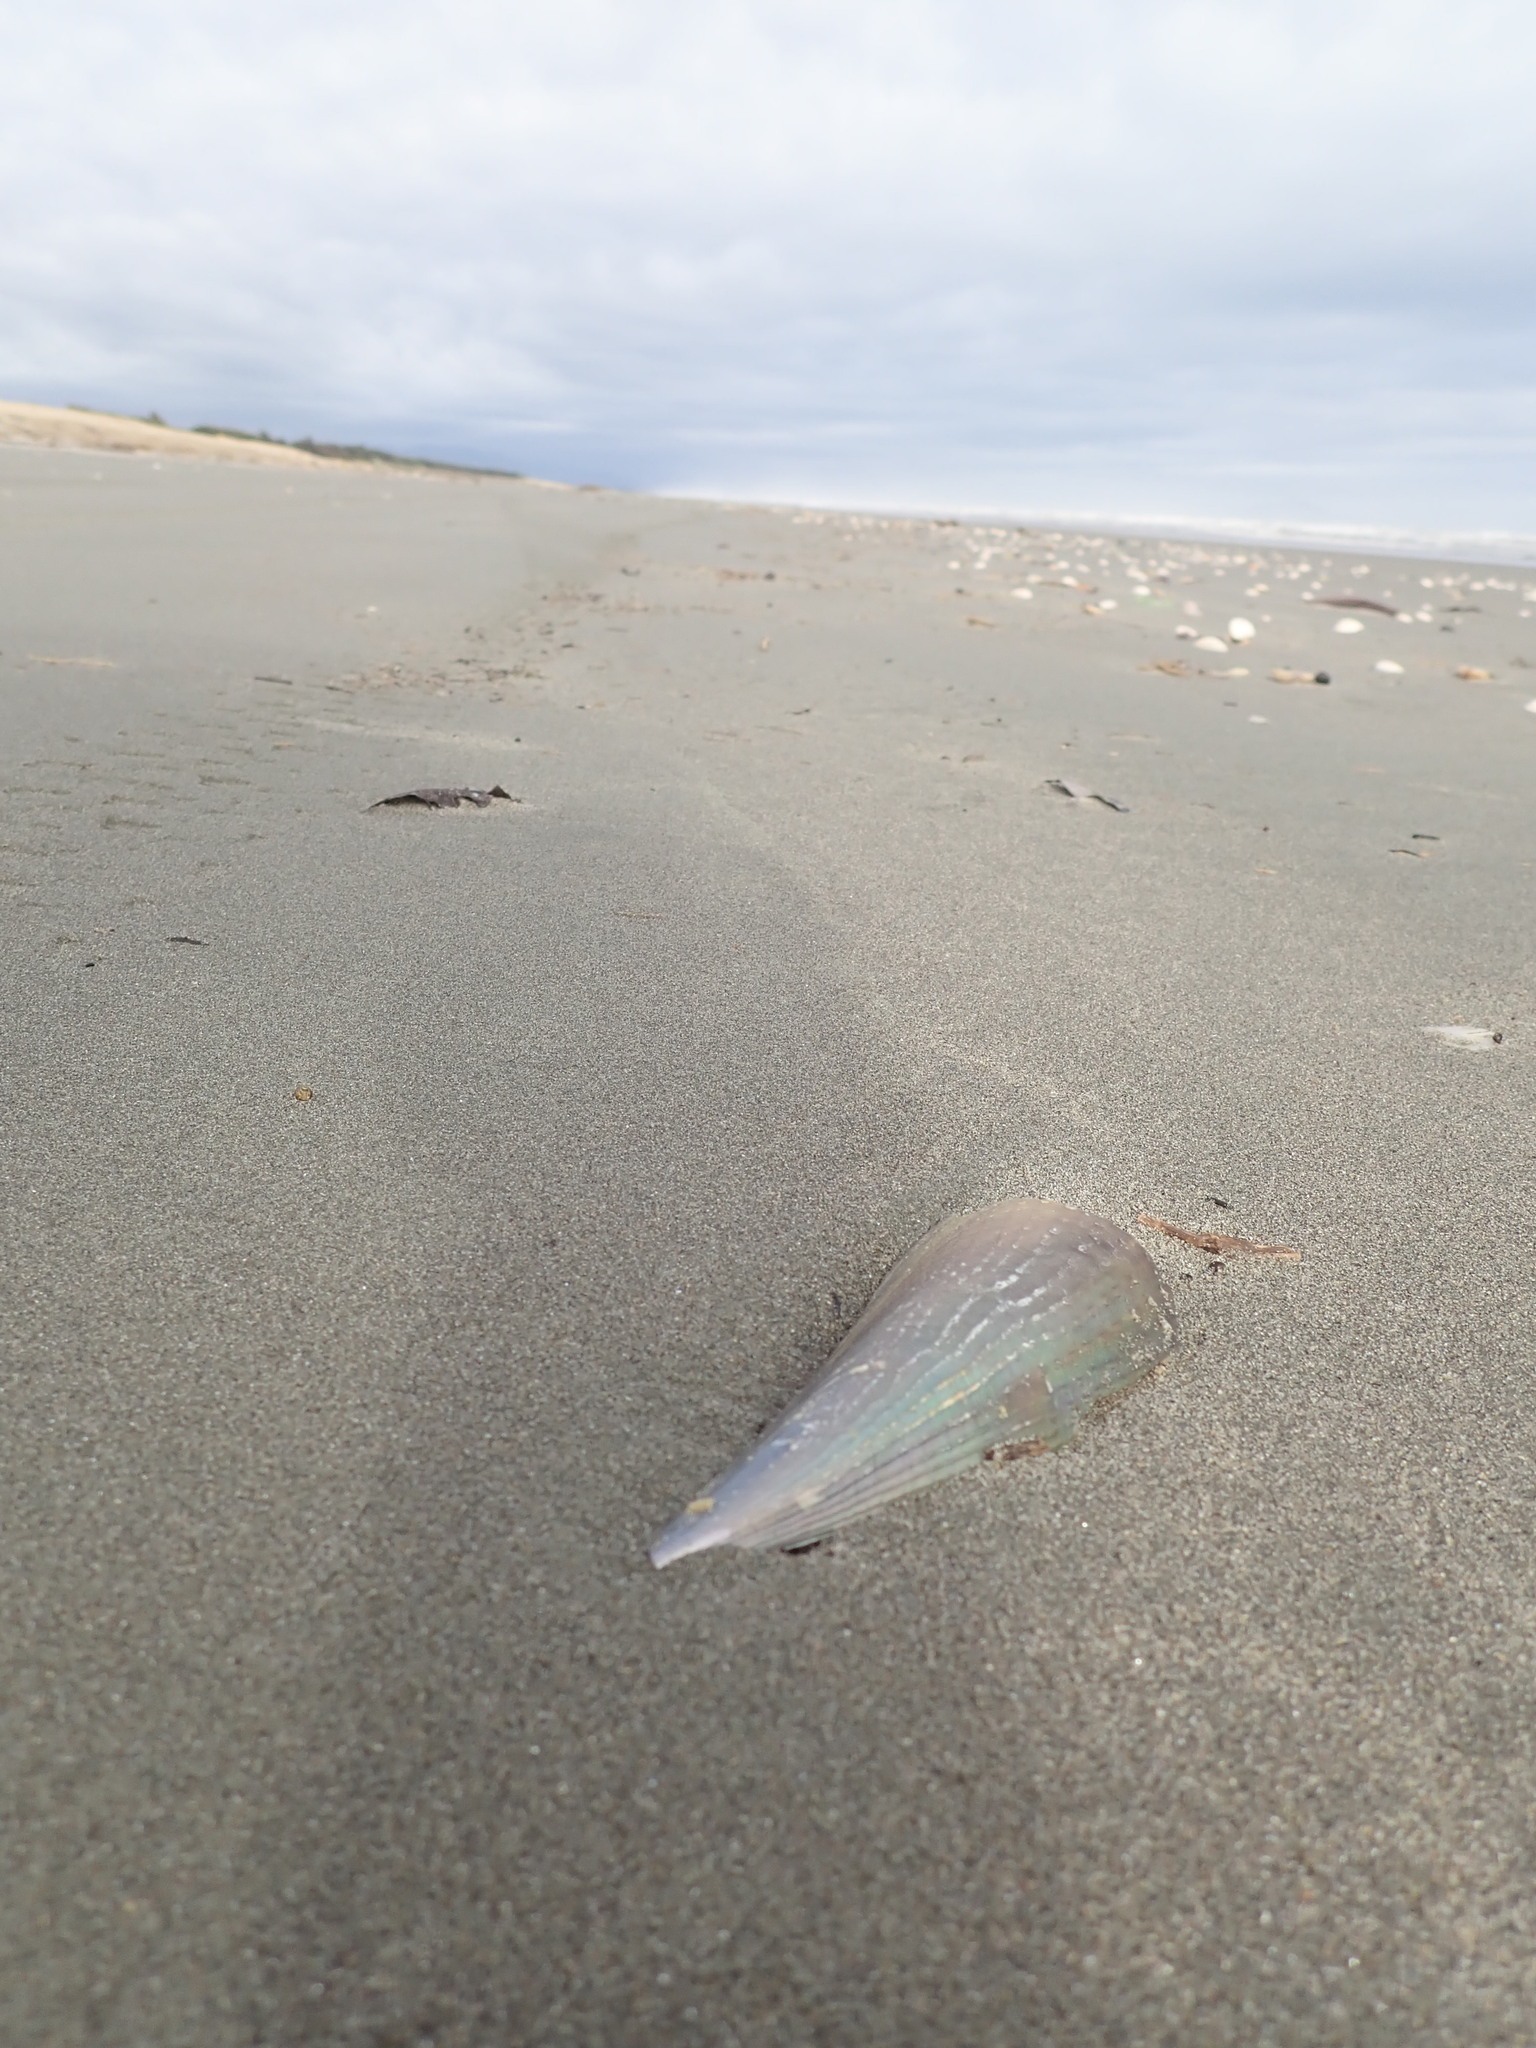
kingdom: Animalia
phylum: Mollusca
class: Bivalvia
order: Ostreida
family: Pinnidae
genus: Atrina
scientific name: Atrina zelandica
